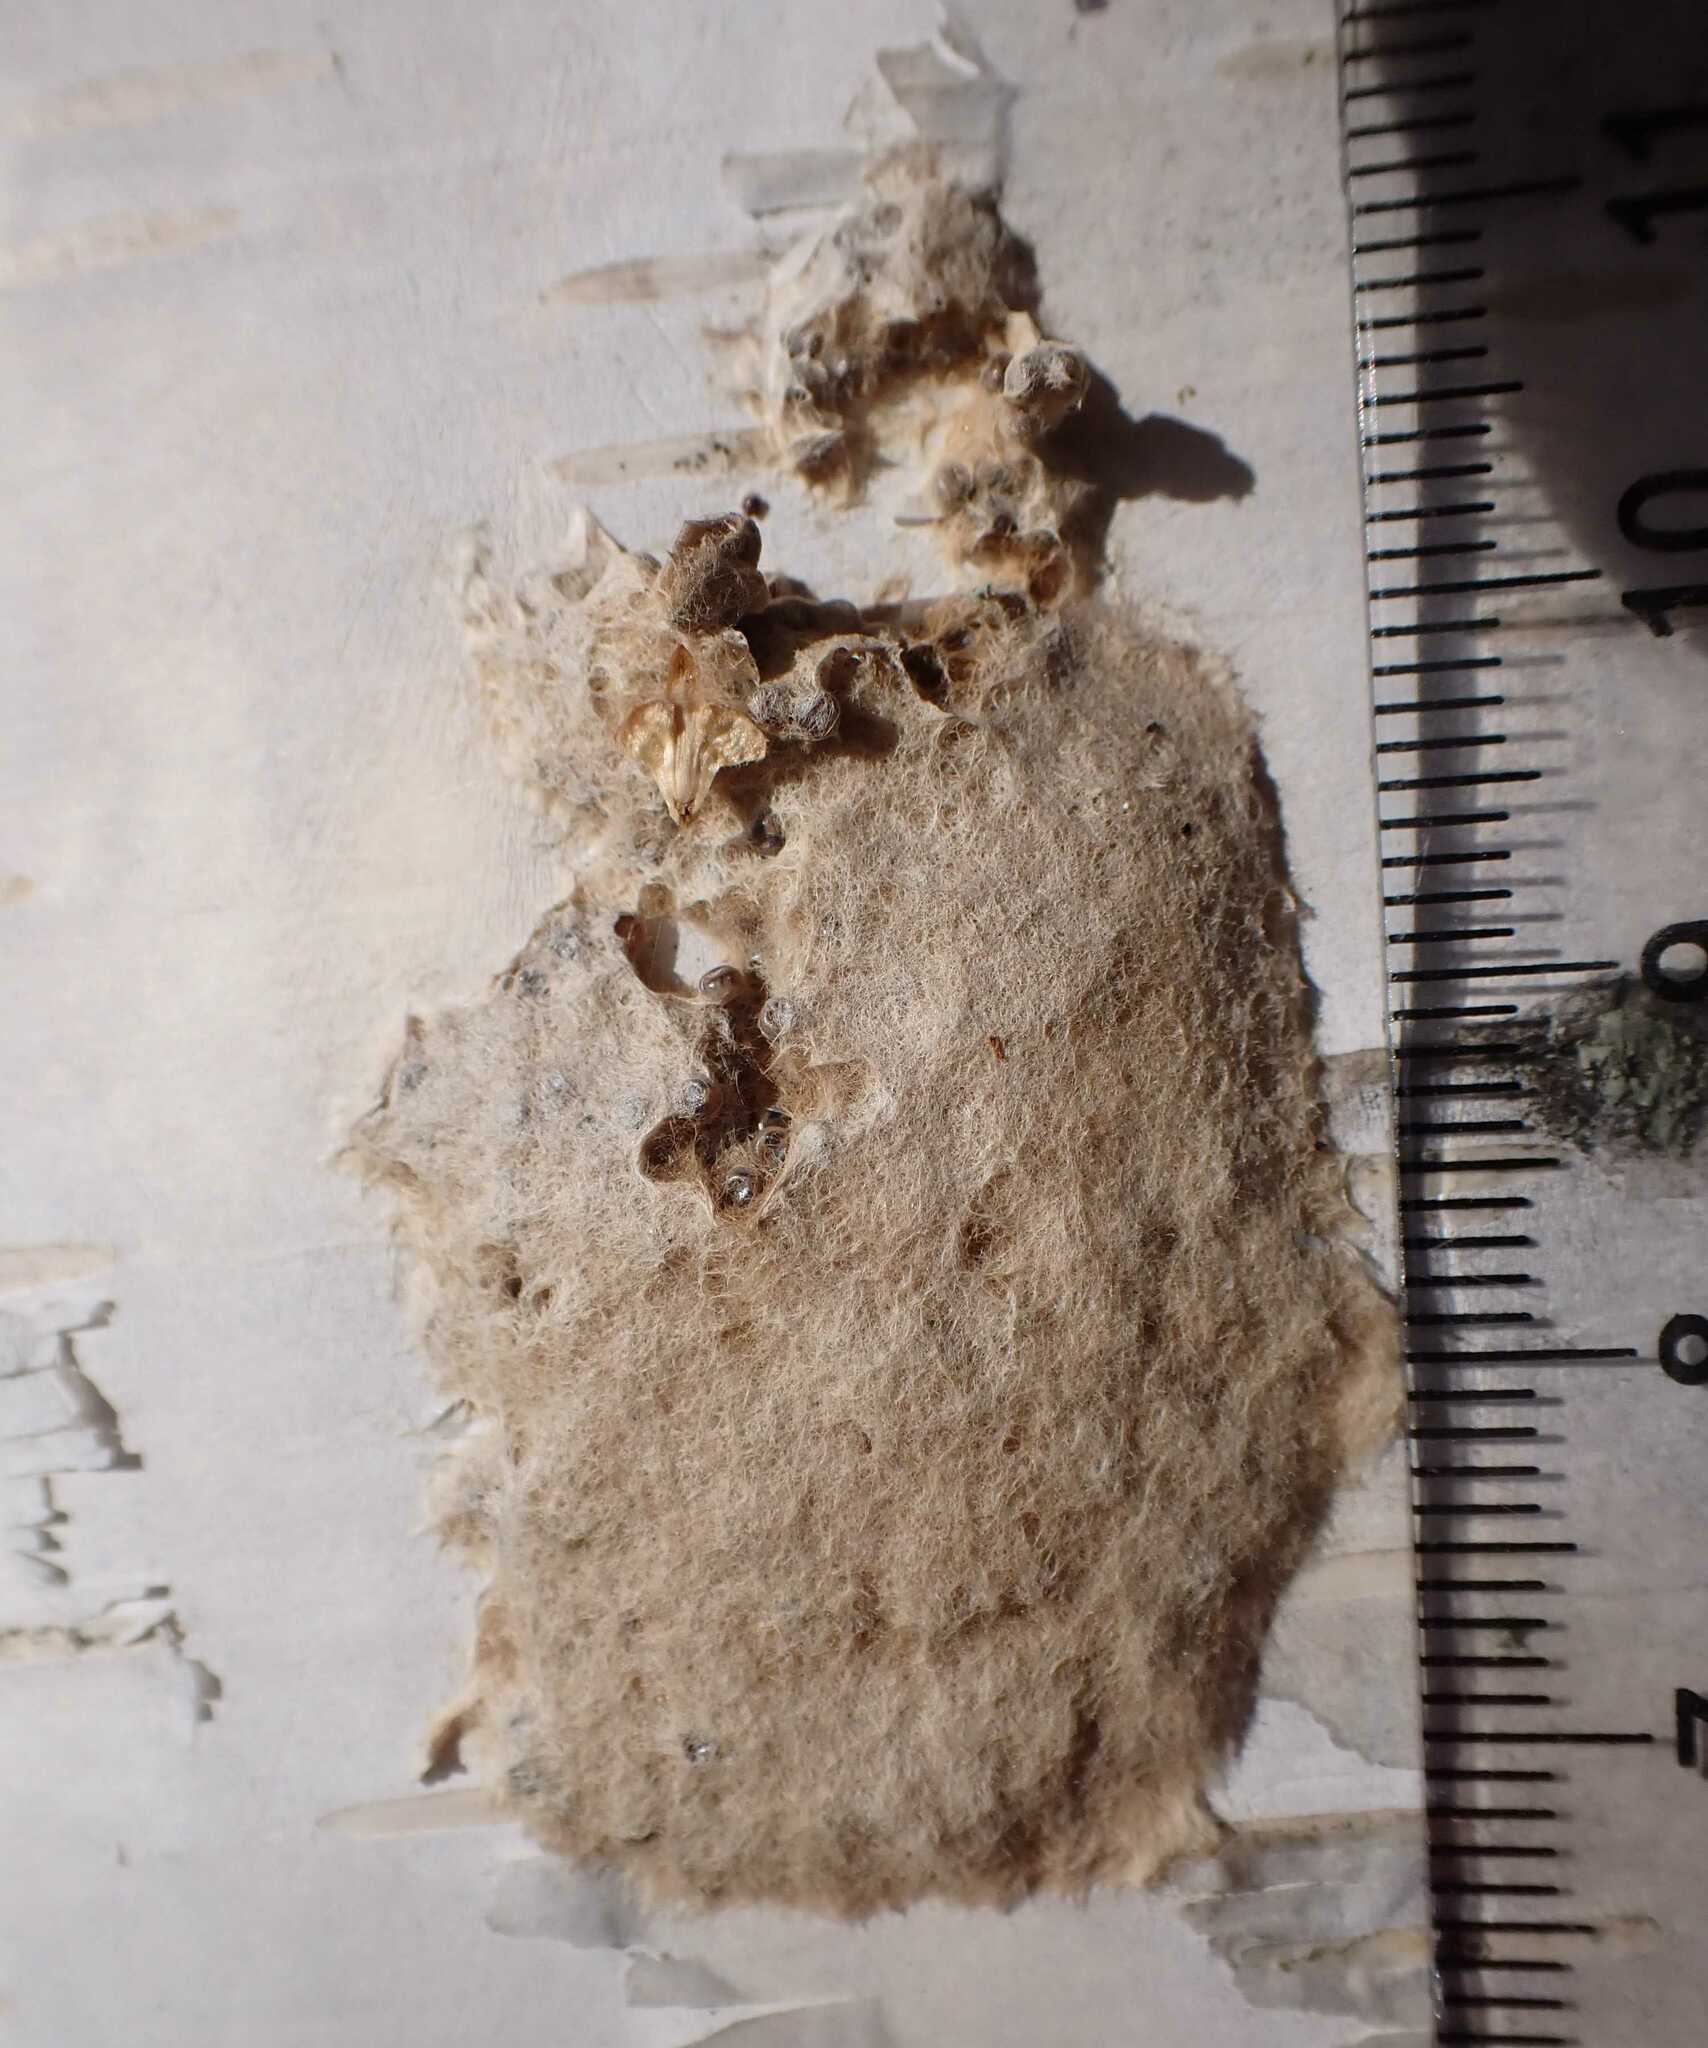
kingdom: Animalia
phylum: Arthropoda
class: Insecta
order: Lepidoptera
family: Erebidae
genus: Lymantria
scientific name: Lymantria dispar
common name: Gypsy moth
